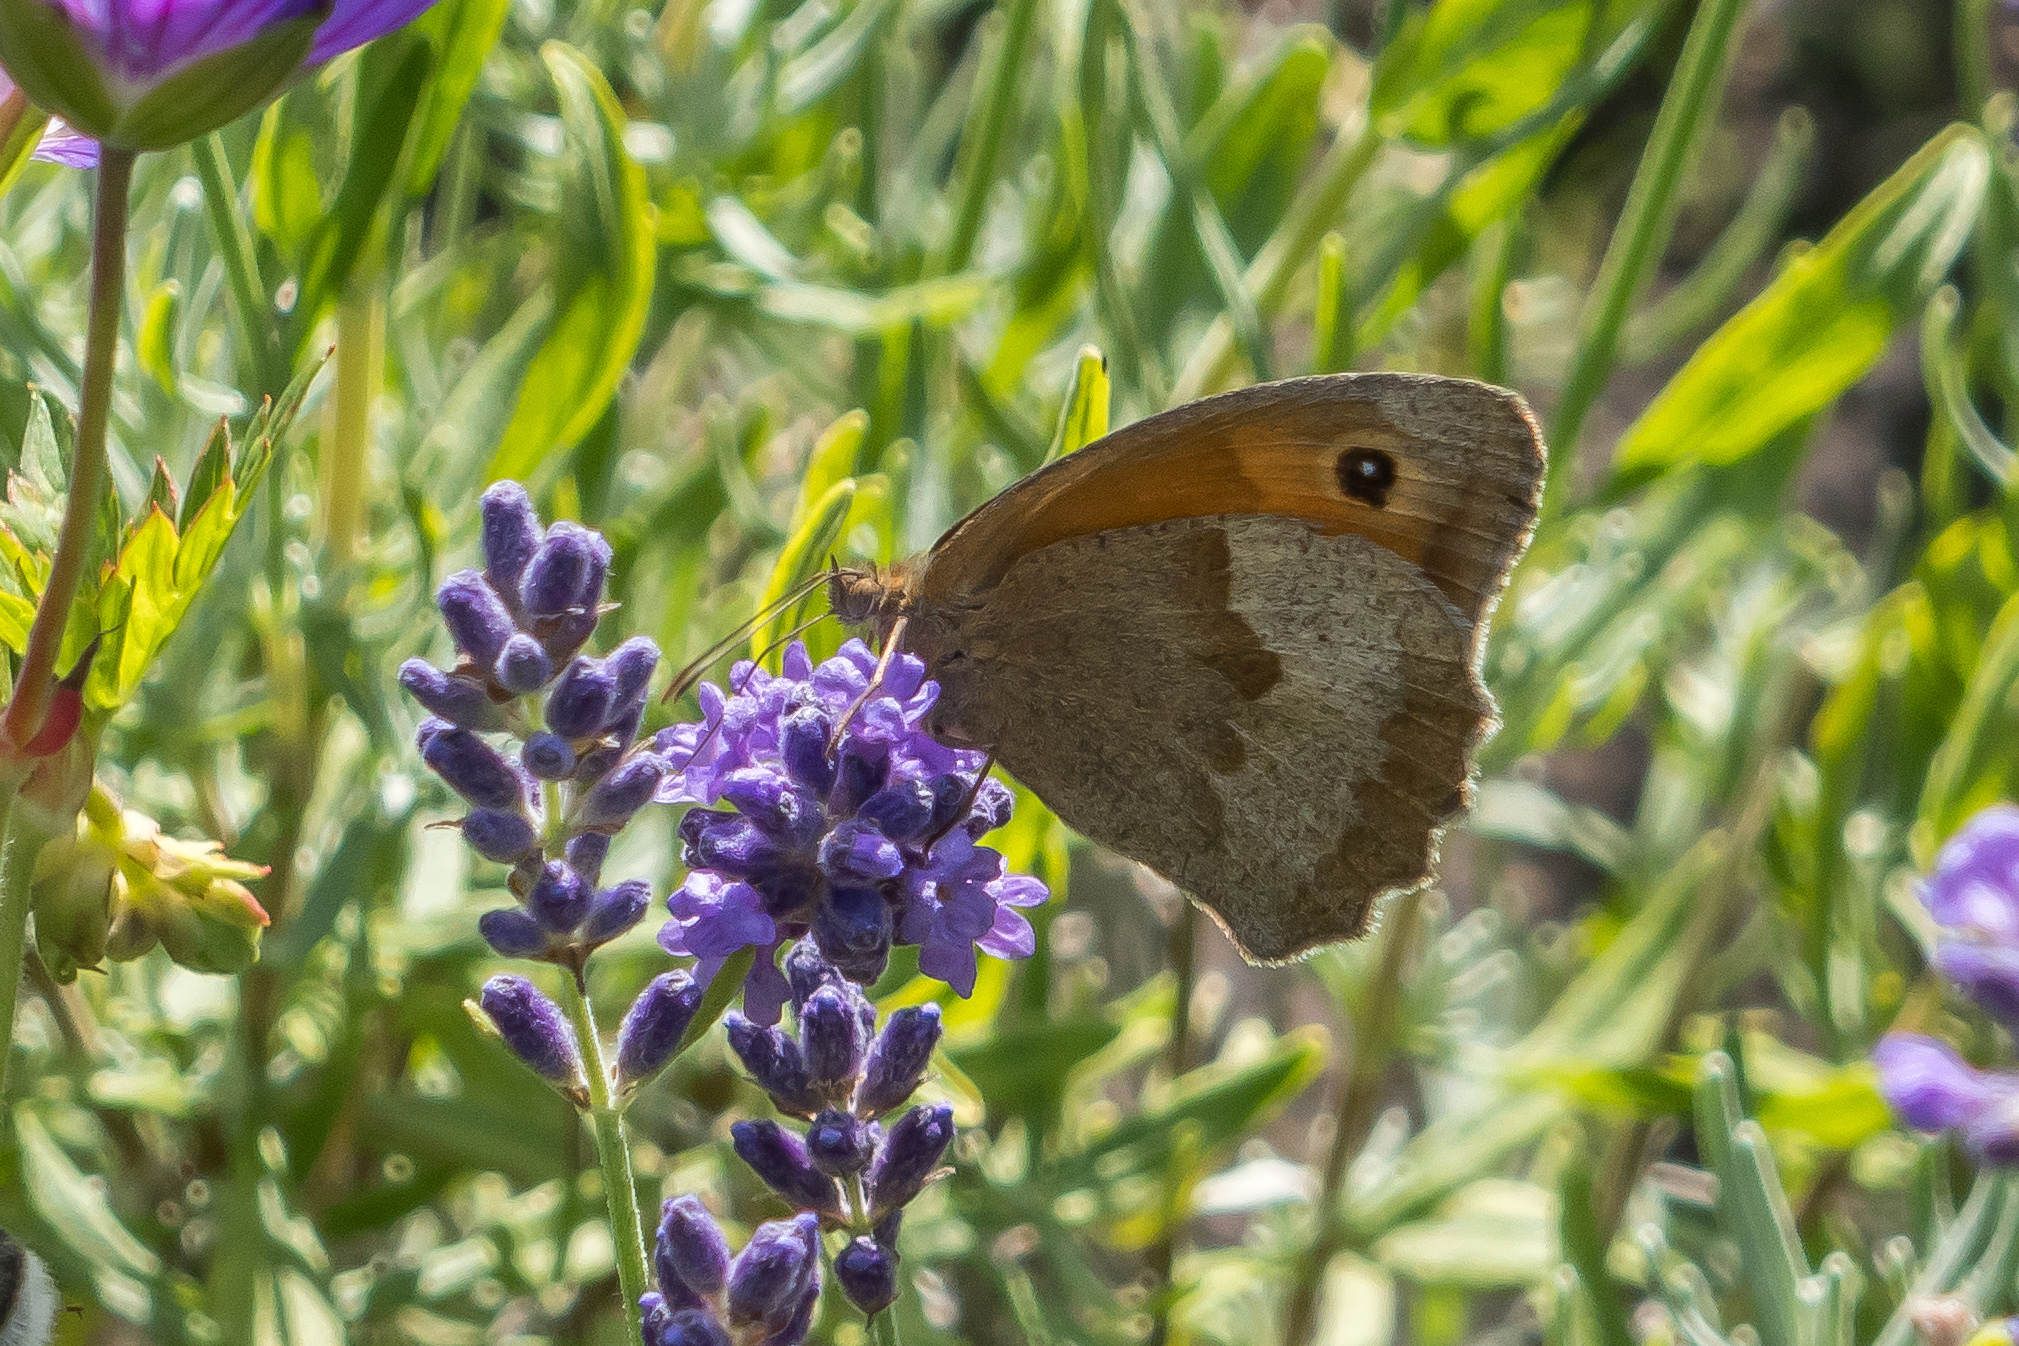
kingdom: Animalia
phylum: Arthropoda
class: Insecta
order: Lepidoptera
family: Nymphalidae
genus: Maniola
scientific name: Maniola jurtina
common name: Meadow brown
